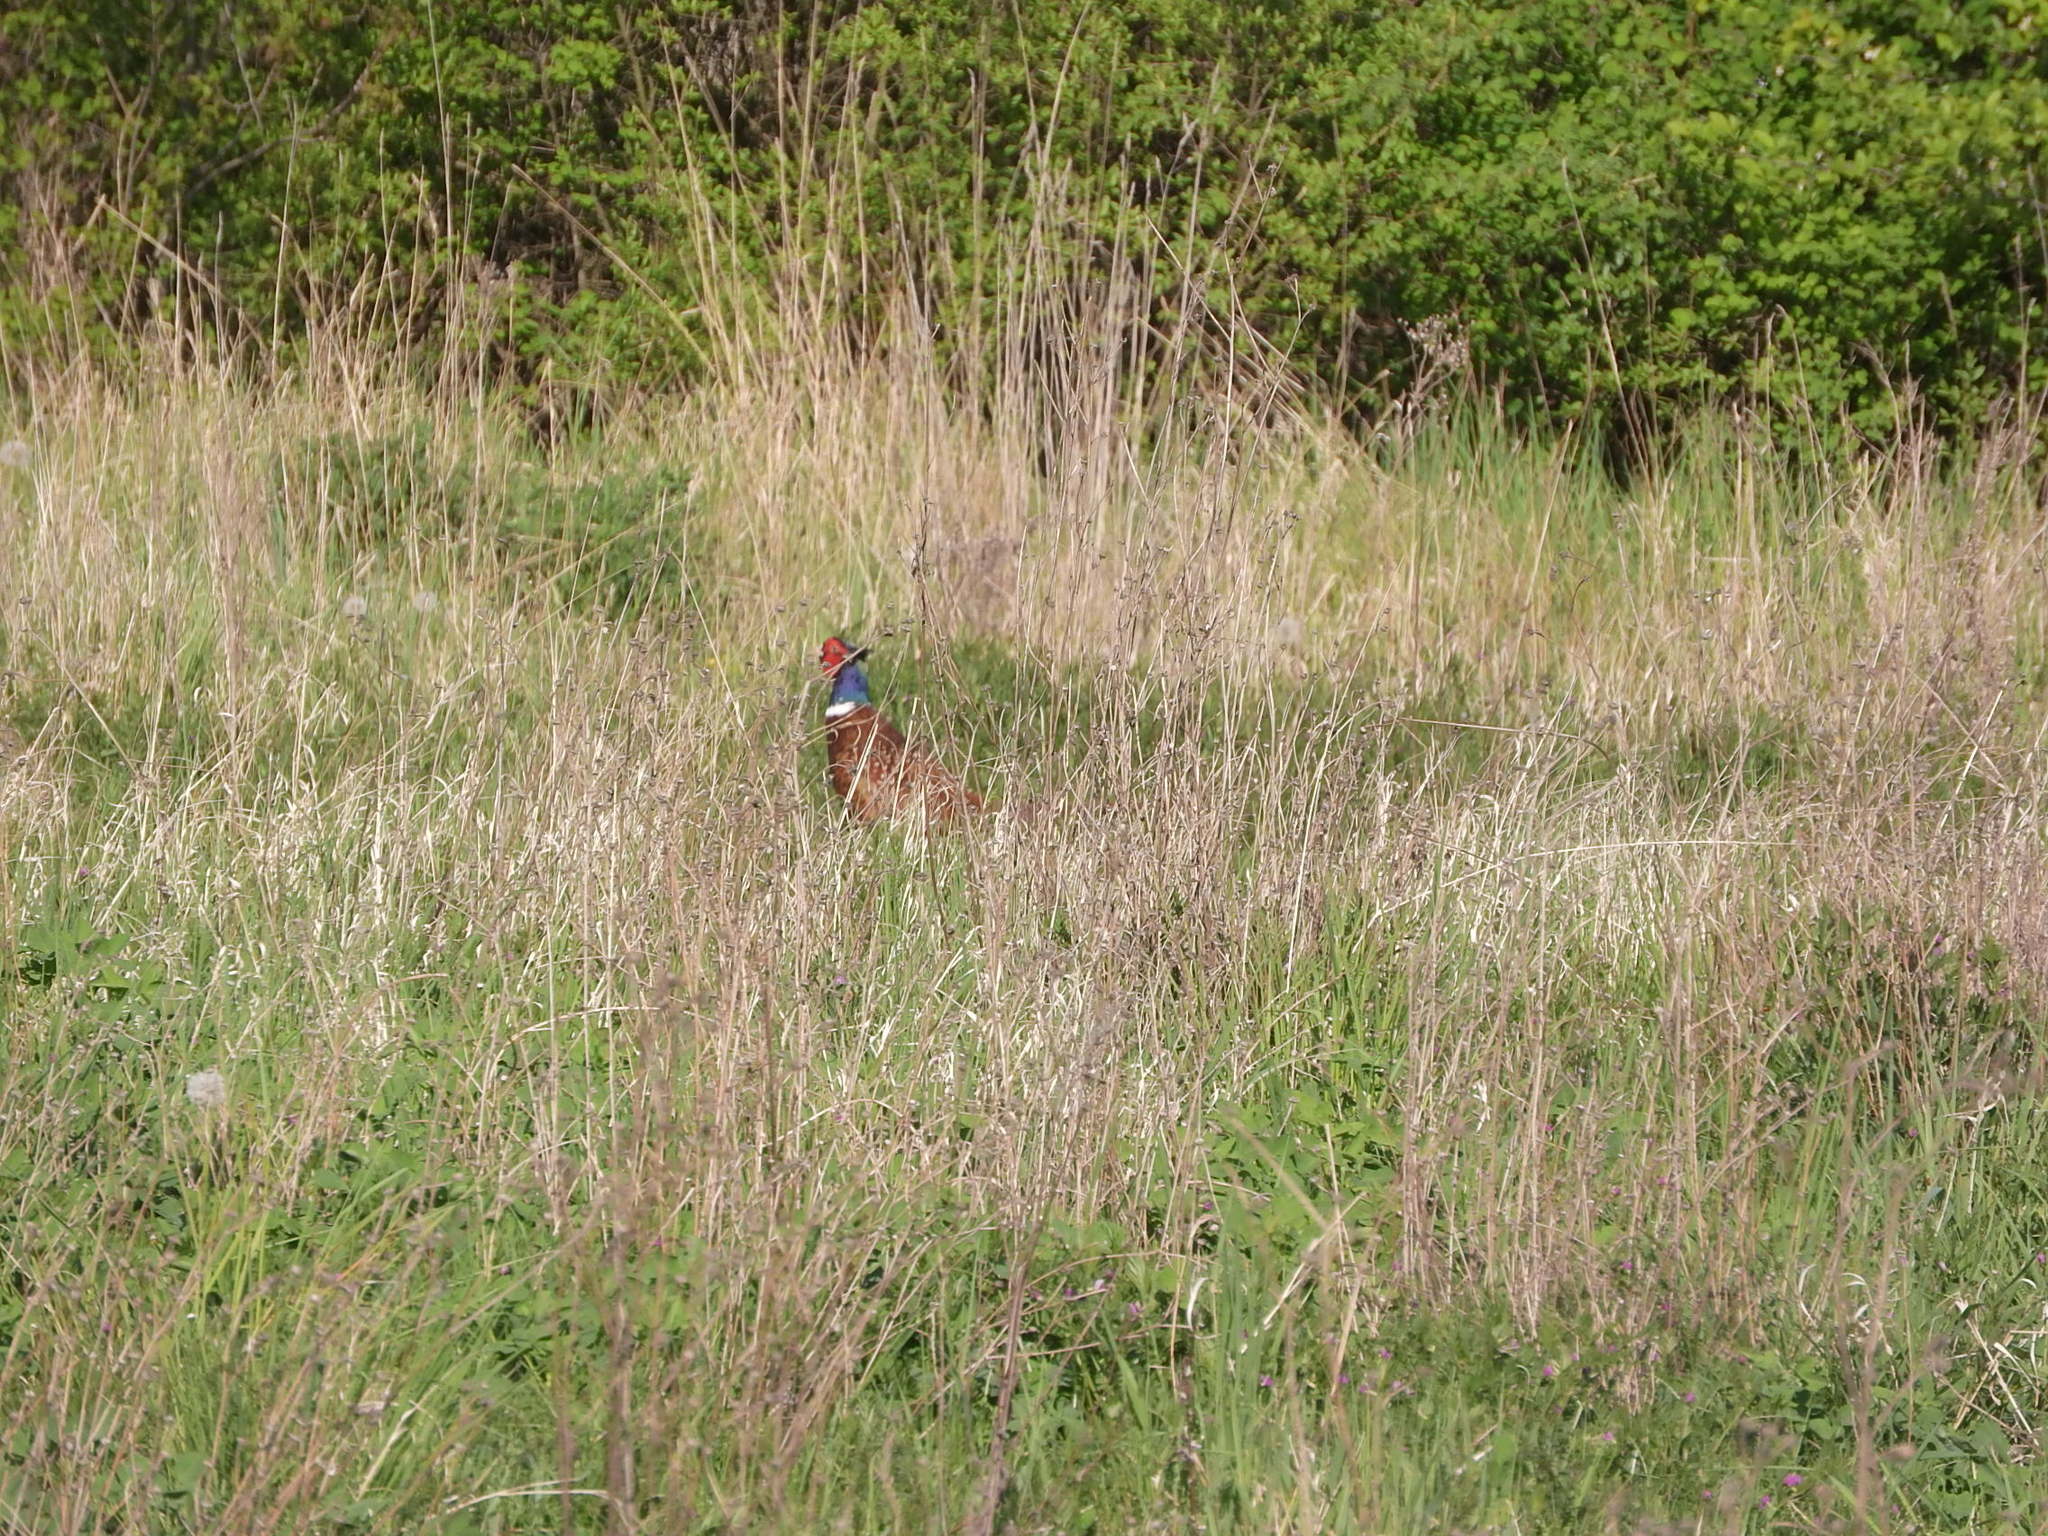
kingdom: Animalia
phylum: Chordata
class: Aves
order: Galliformes
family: Phasianidae
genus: Phasianus
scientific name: Phasianus colchicus
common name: Common pheasant
